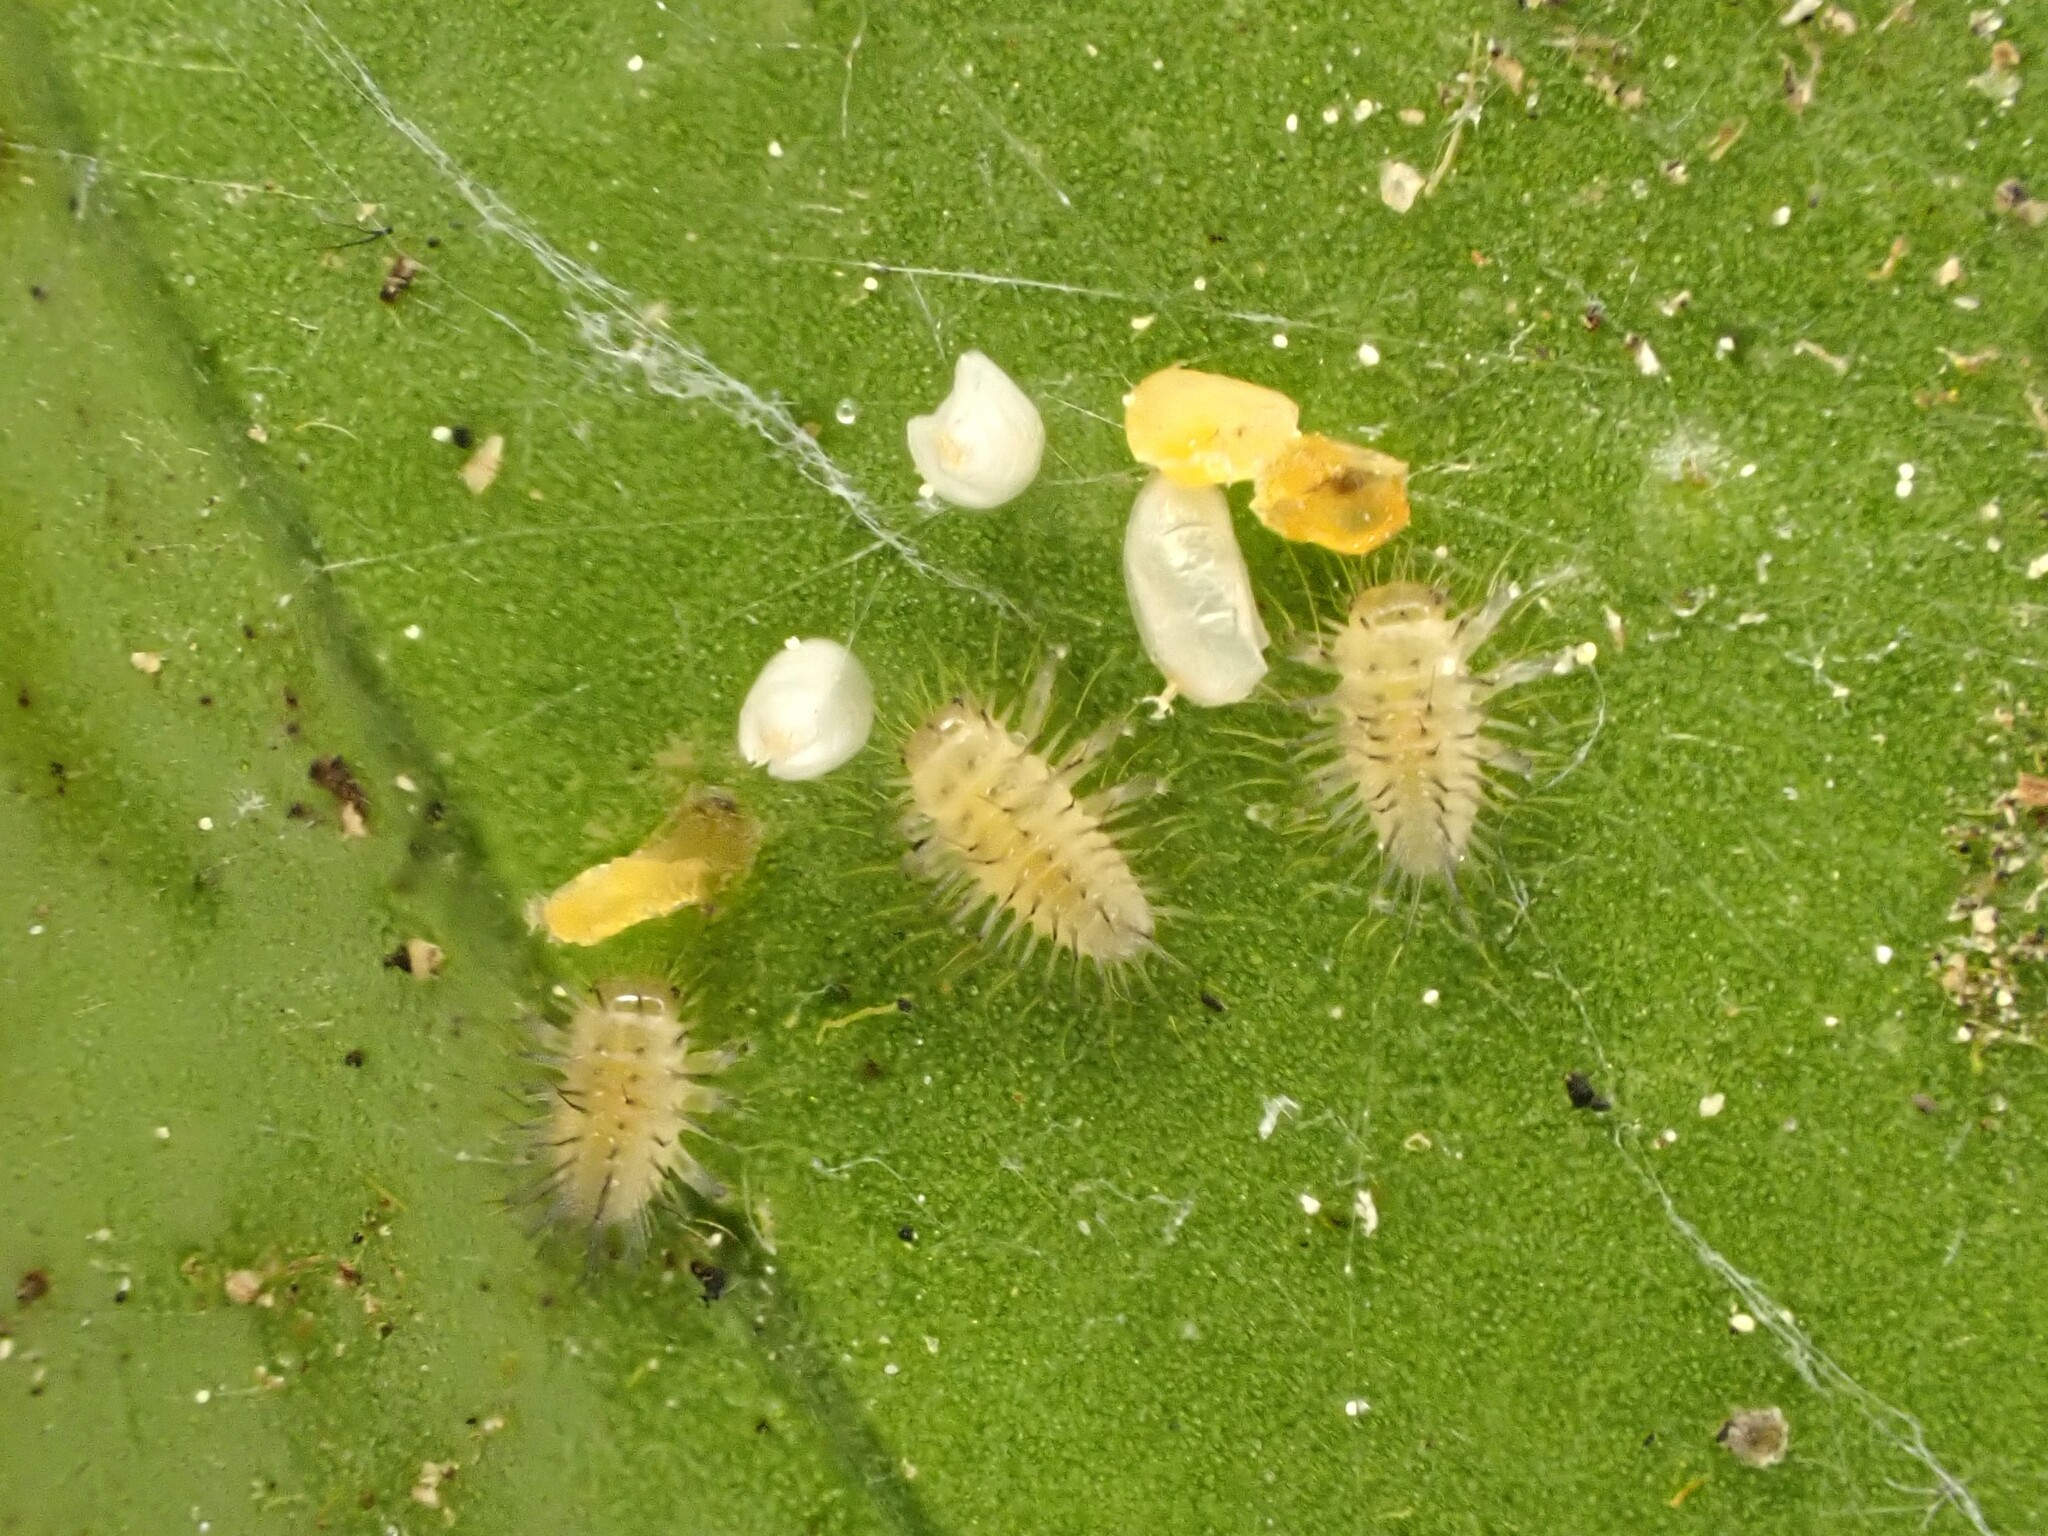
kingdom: Animalia
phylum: Arthropoda
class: Insecta
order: Coleoptera
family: Coccinellidae
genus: Halmus
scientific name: Halmus chalybeus
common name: Steel blue ladybird beetle
